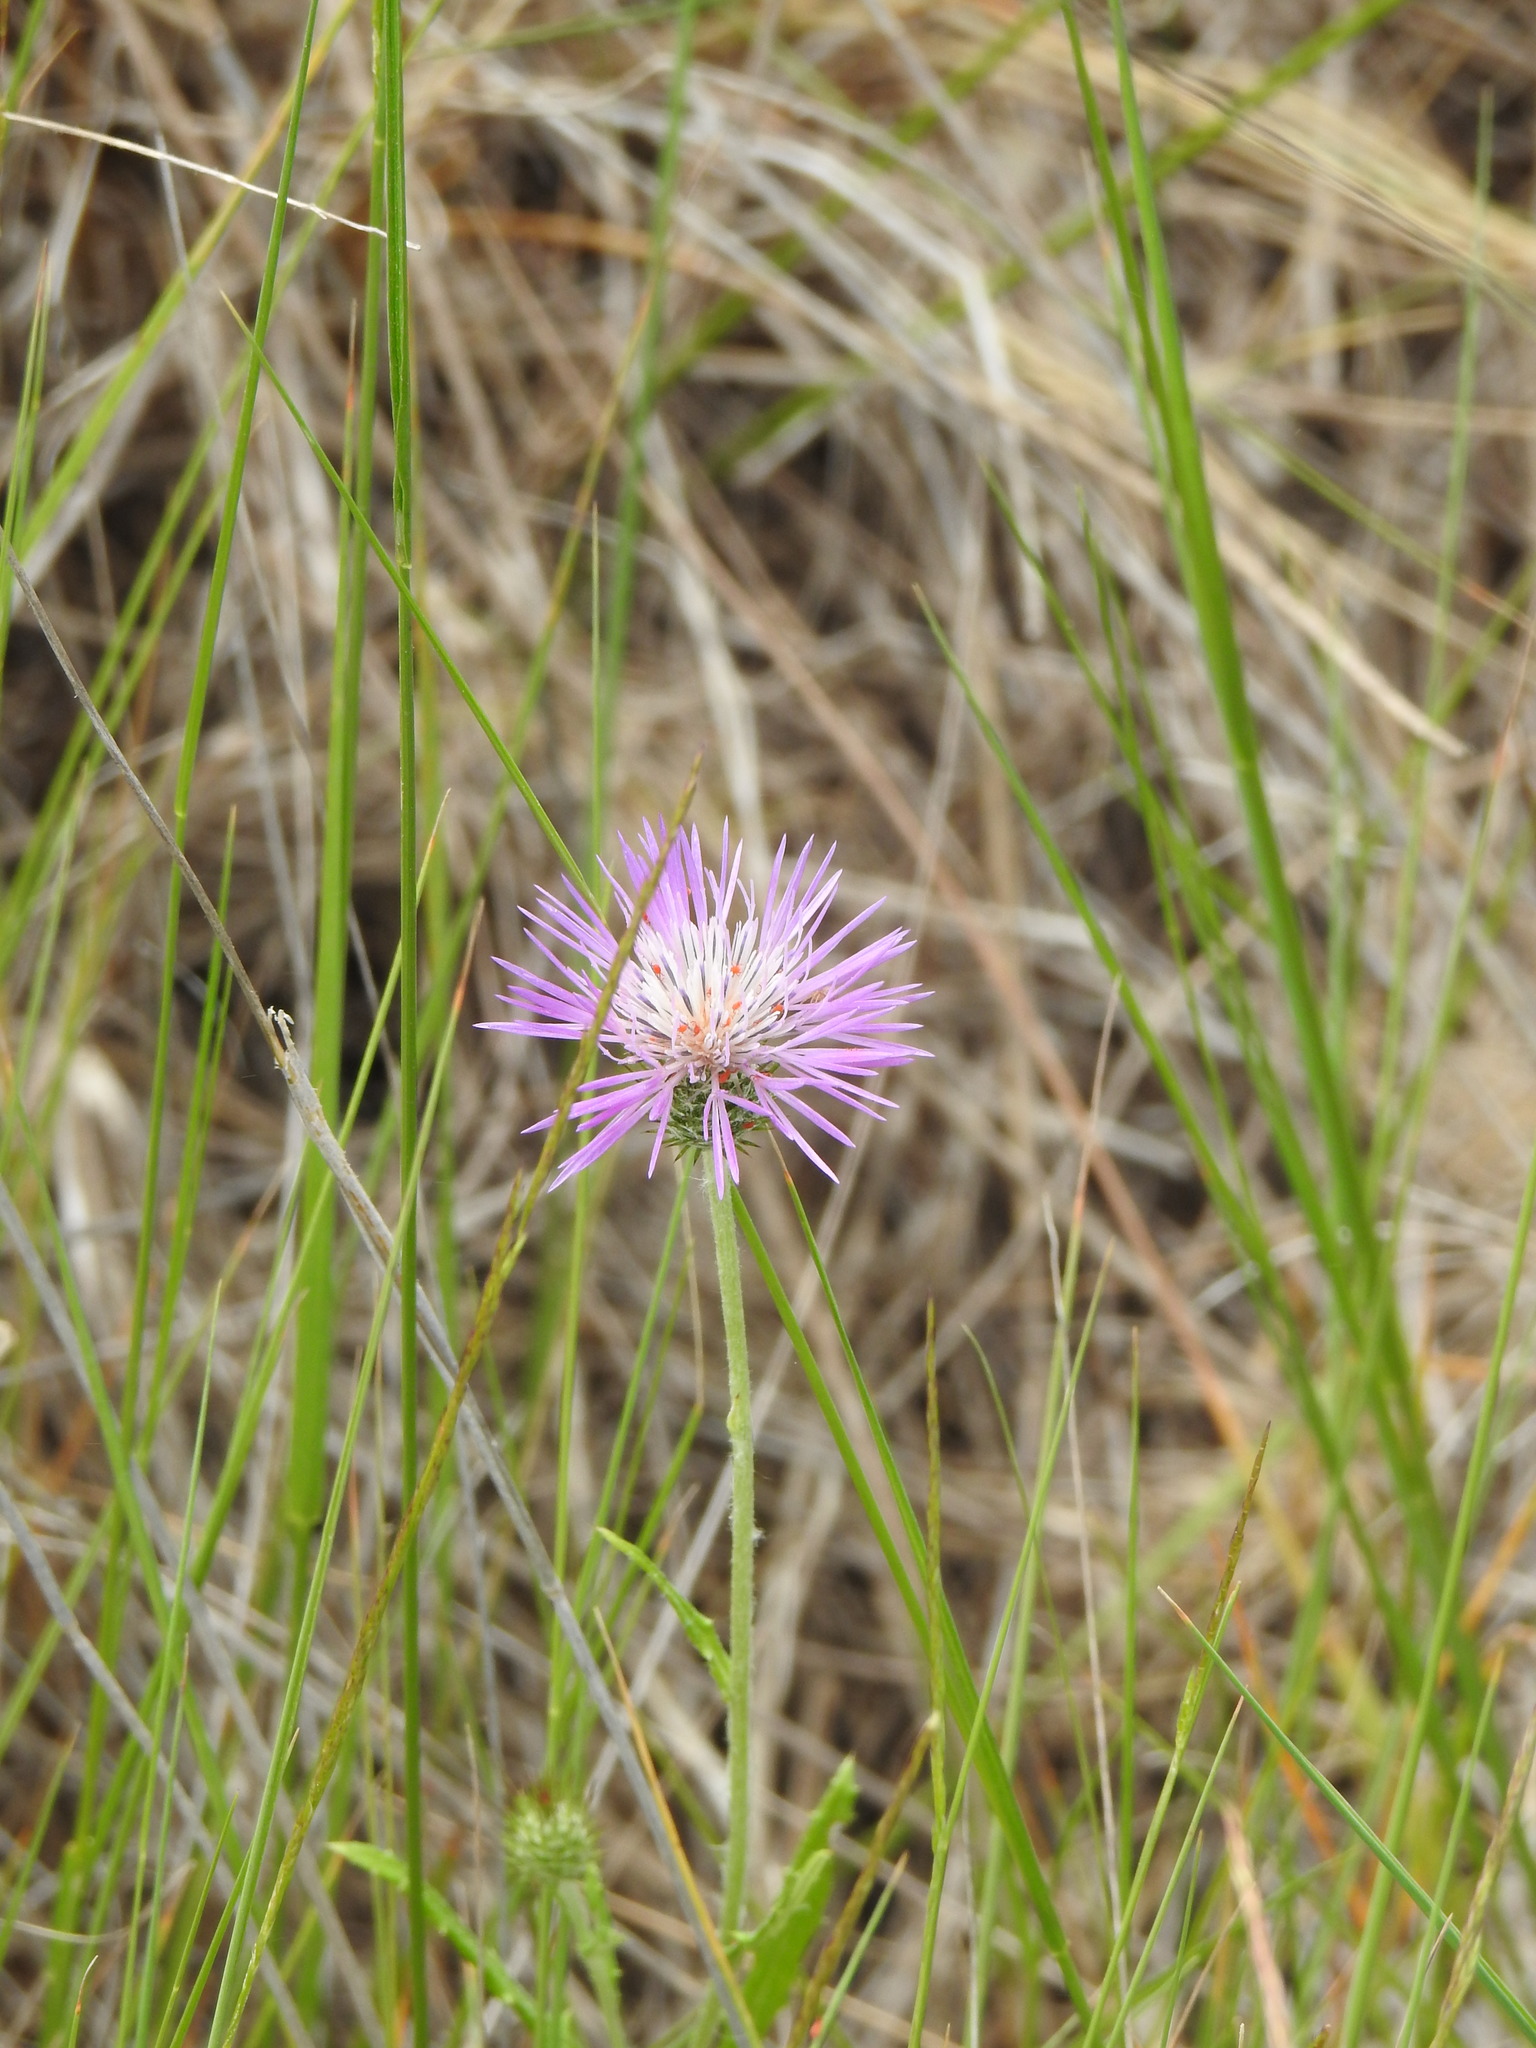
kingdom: Plantae
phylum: Tracheophyta
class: Magnoliopsida
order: Asterales
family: Asteraceae
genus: Galactites
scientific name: Galactites tomentosa
